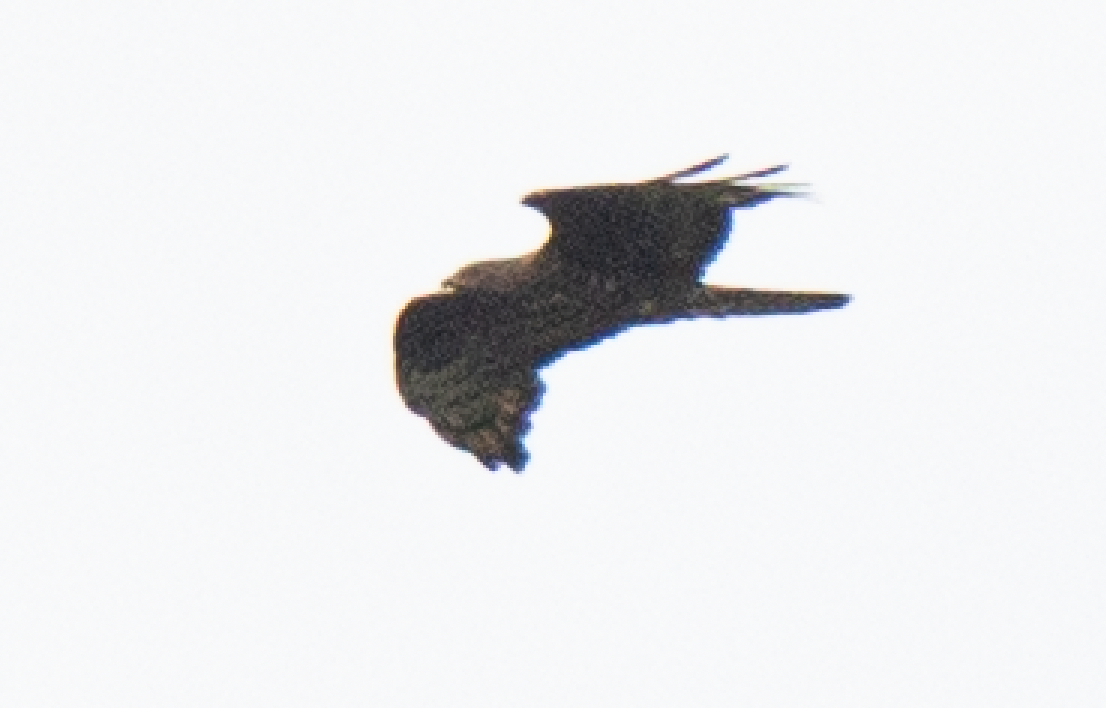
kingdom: Animalia
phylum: Chordata
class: Aves
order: Accipitriformes
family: Accipitridae
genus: Pernis
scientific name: Pernis apivorus
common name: European honey buzzard
